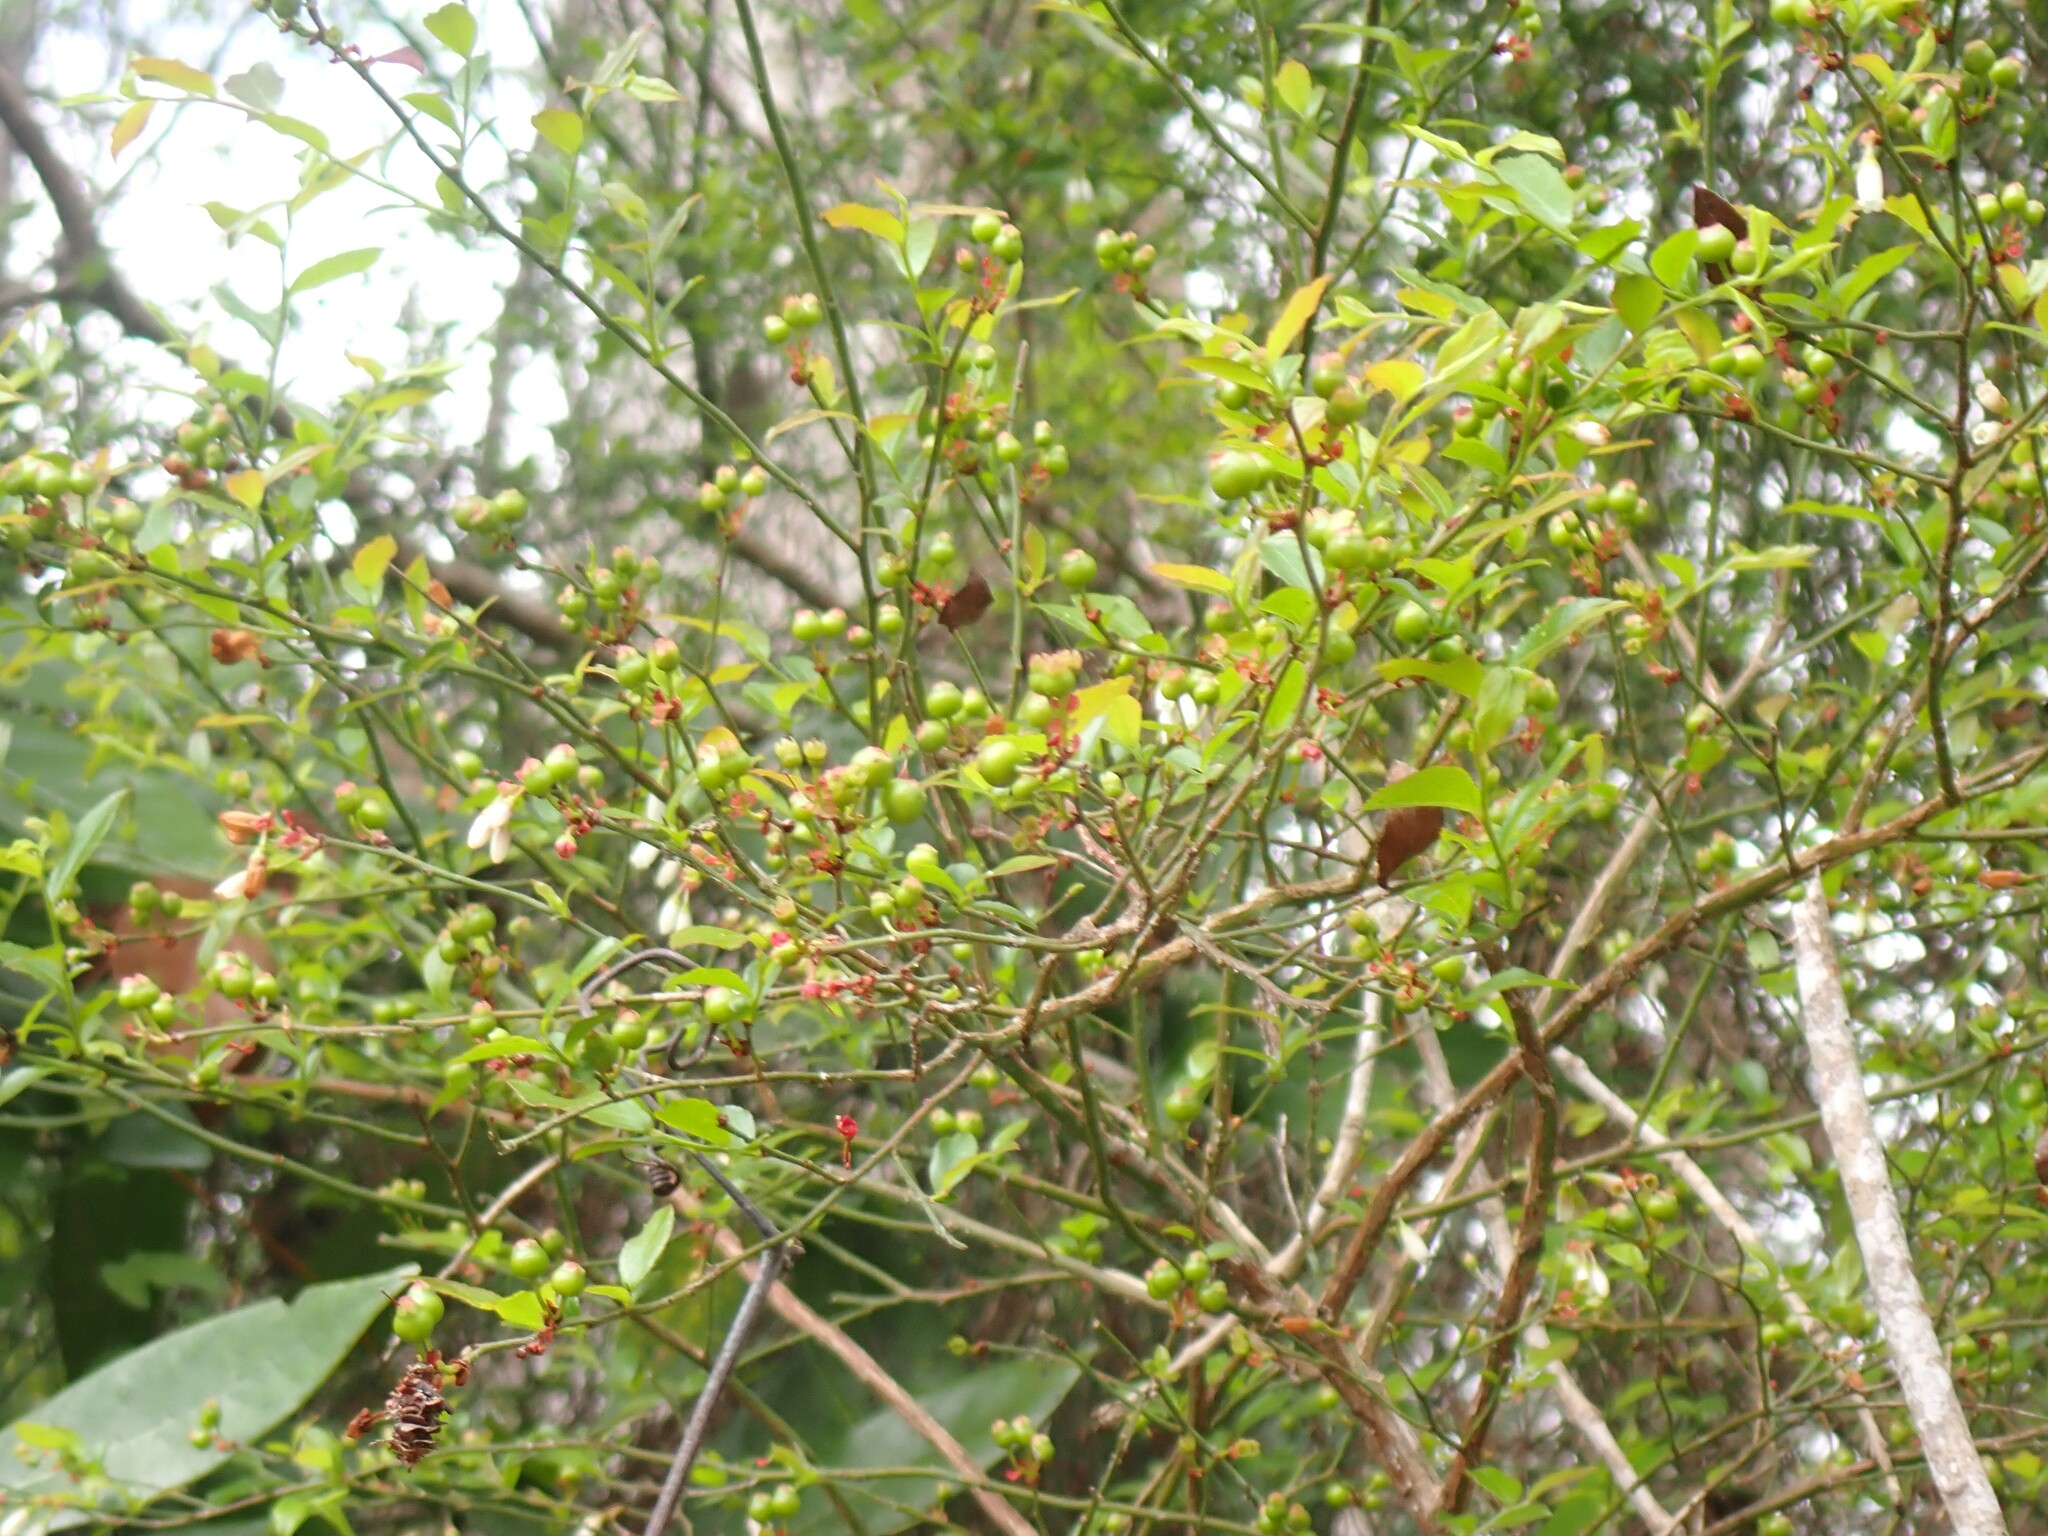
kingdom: Plantae
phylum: Tracheophyta
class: Magnoliopsida
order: Ericales
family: Ericaceae
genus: Vaccinium
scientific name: Vaccinium corymbosum
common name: Blueberry
